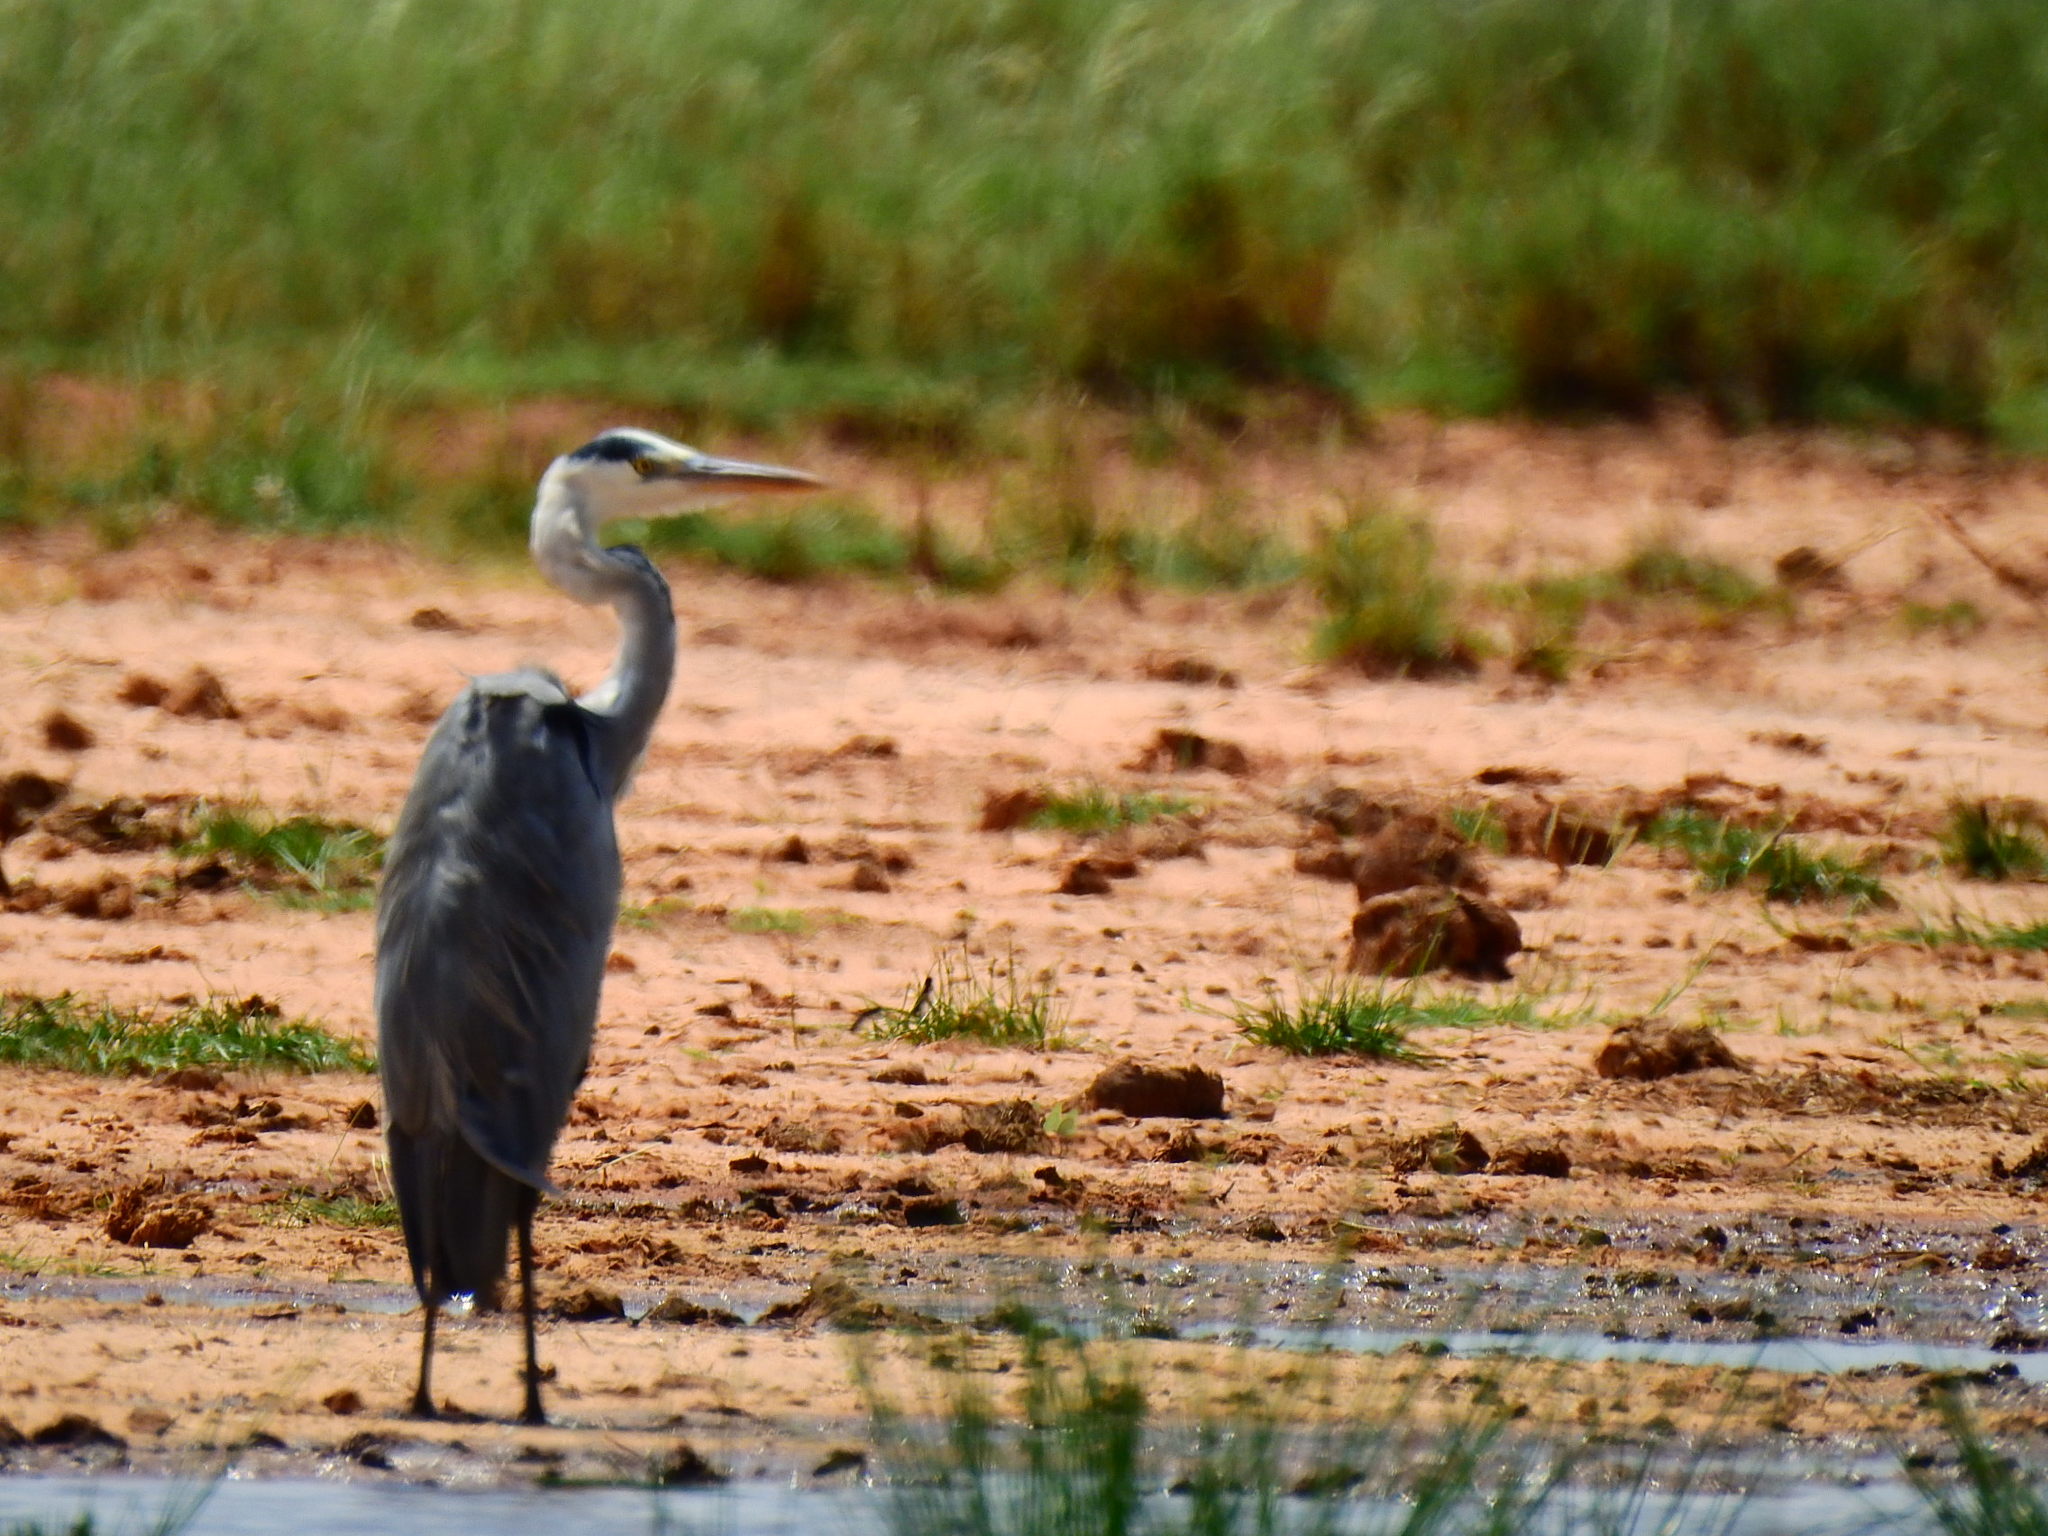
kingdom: Animalia
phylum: Chordata
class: Aves
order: Pelecaniformes
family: Ardeidae
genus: Ardea
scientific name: Ardea cinerea
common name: Grey heron
